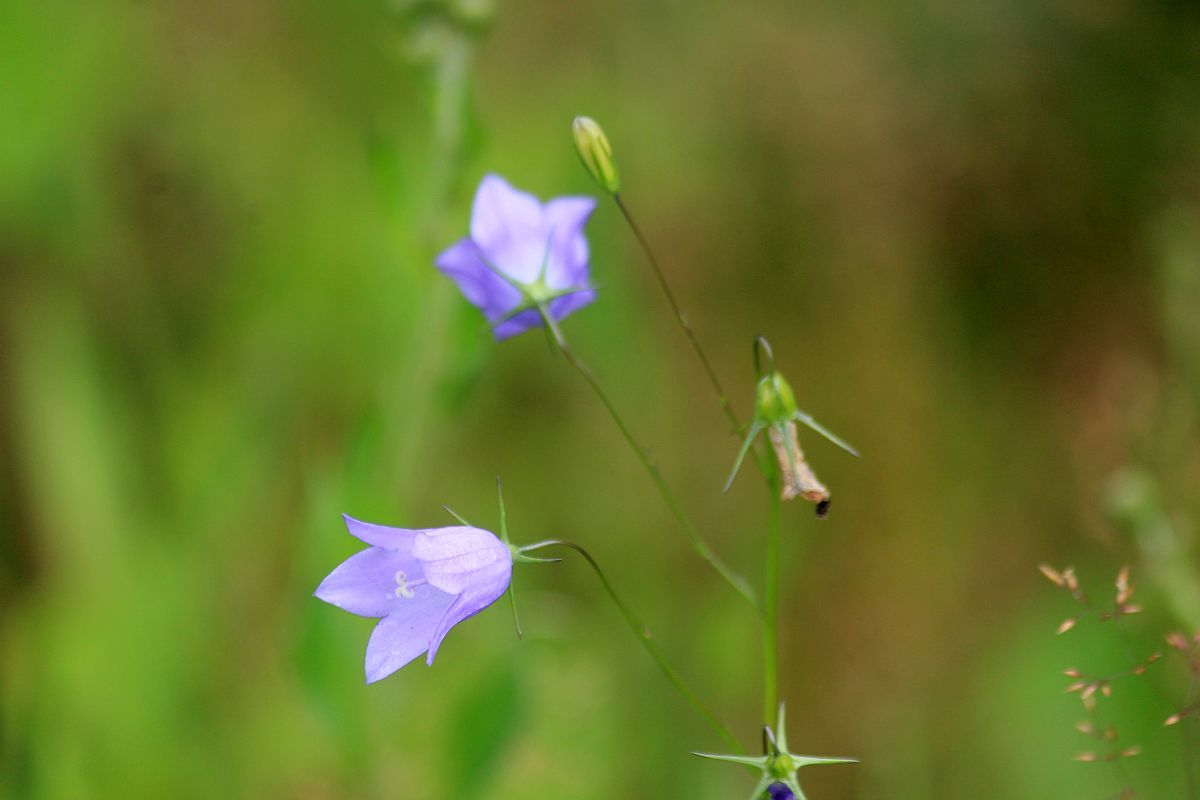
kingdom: Plantae
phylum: Tracheophyta
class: Magnoliopsida
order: Asterales
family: Campanulaceae
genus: Campanula
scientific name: Campanula rotundifolia
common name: Harebell
